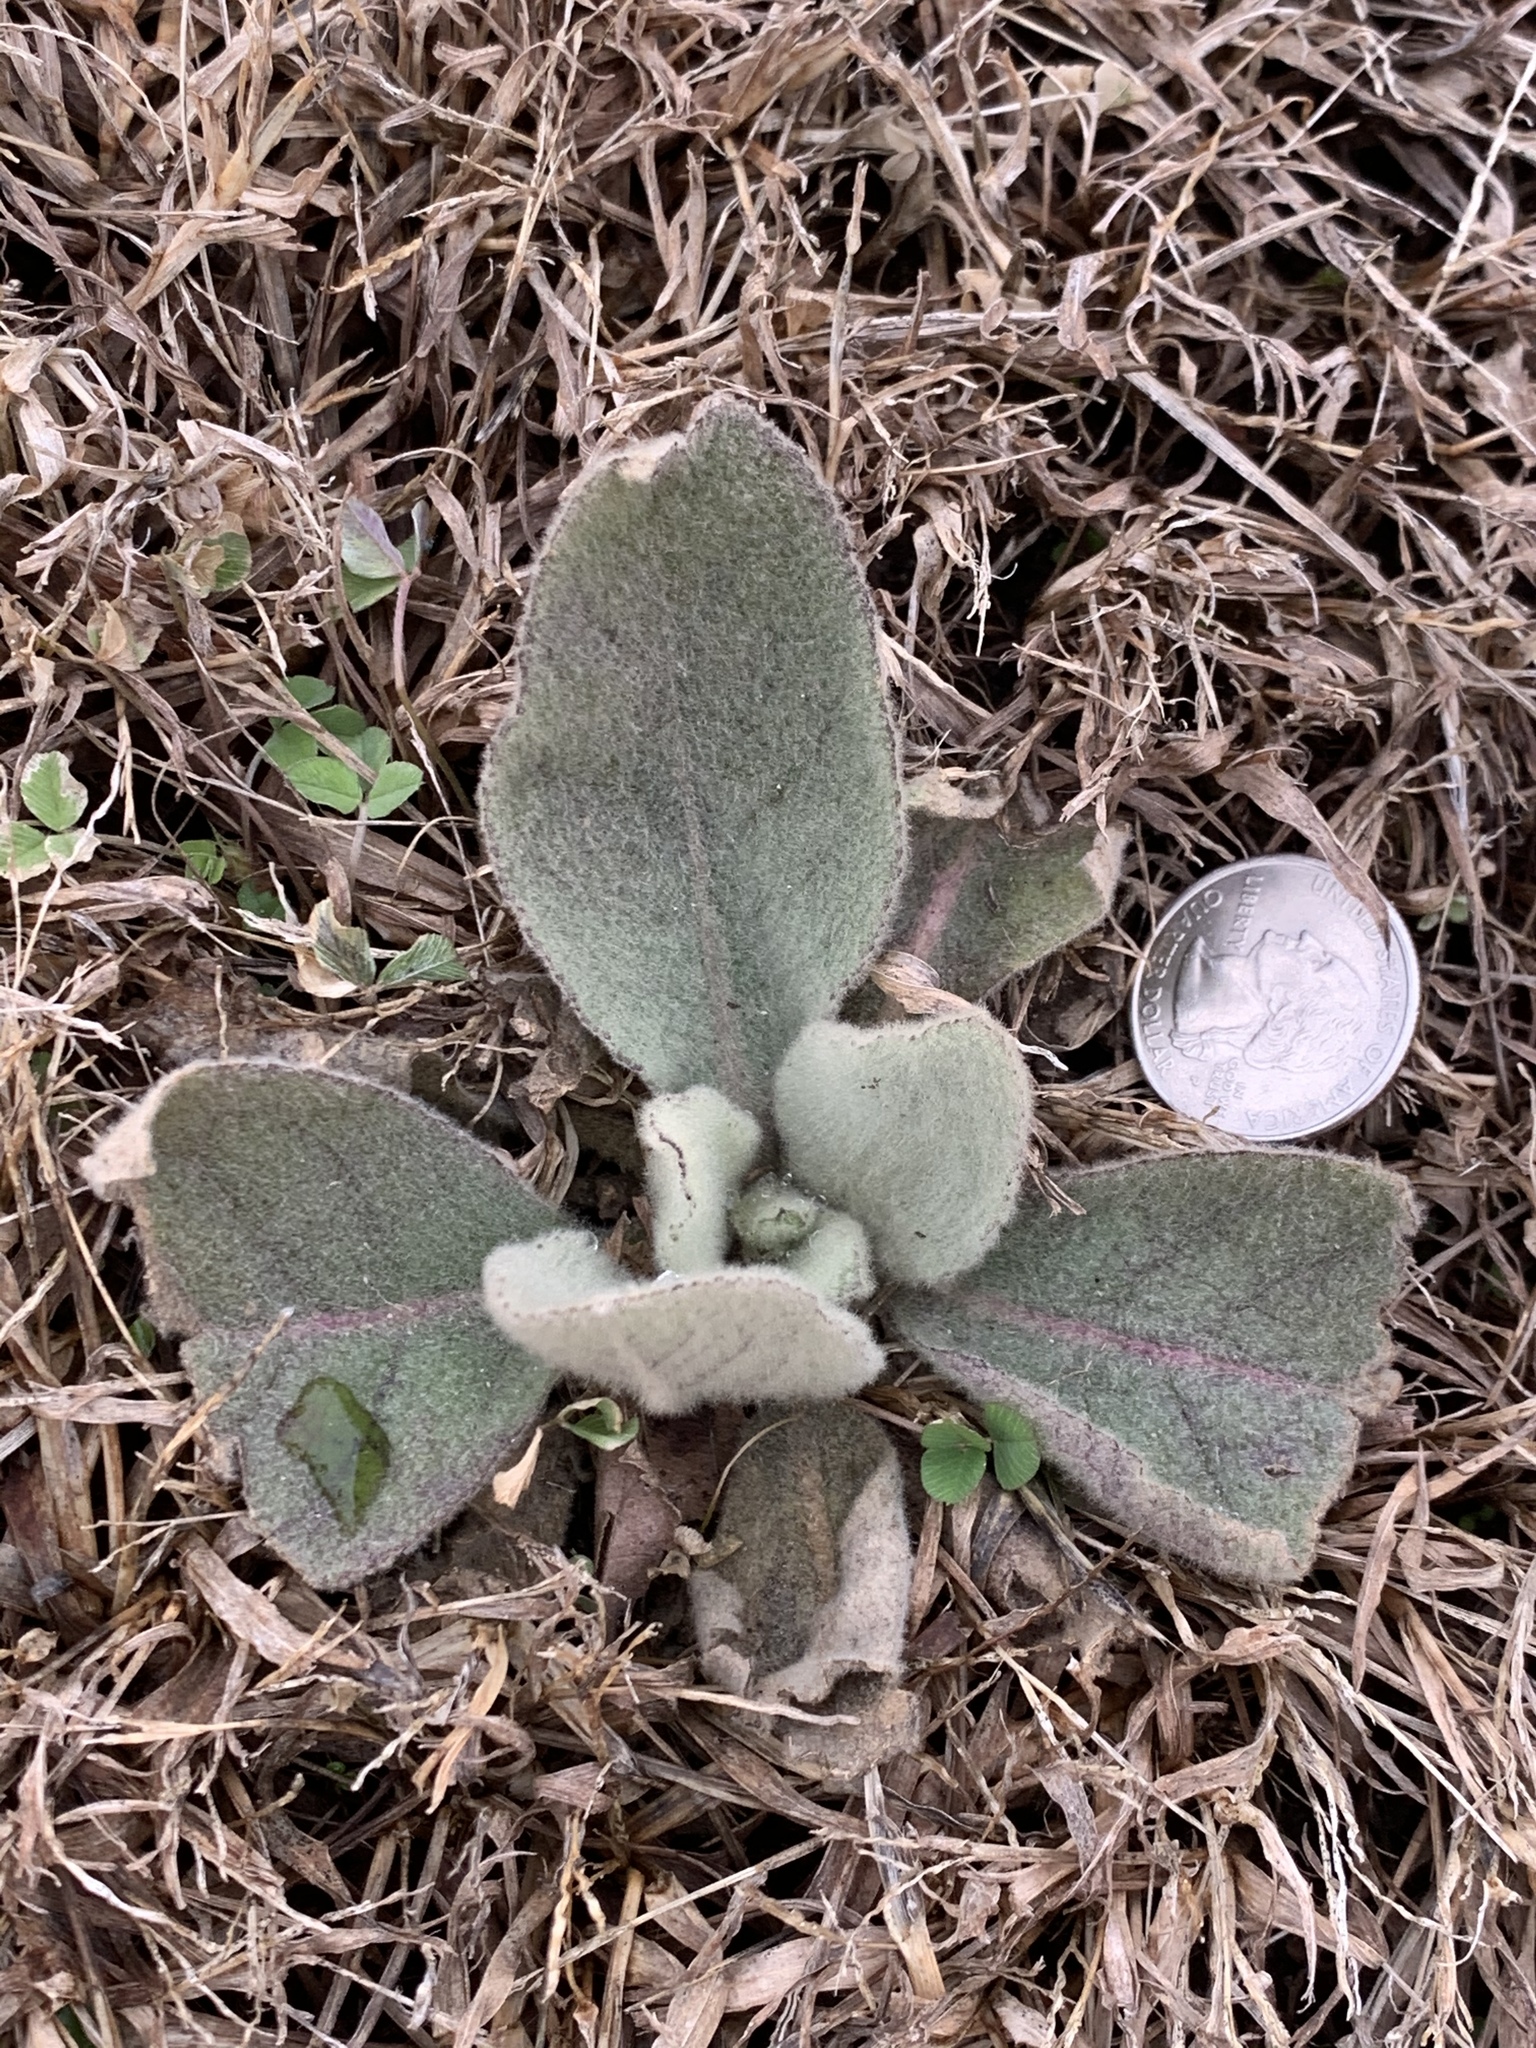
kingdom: Plantae
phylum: Tracheophyta
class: Magnoliopsida
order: Lamiales
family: Scrophulariaceae
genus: Verbascum
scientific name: Verbascum thapsus
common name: Common mullein
